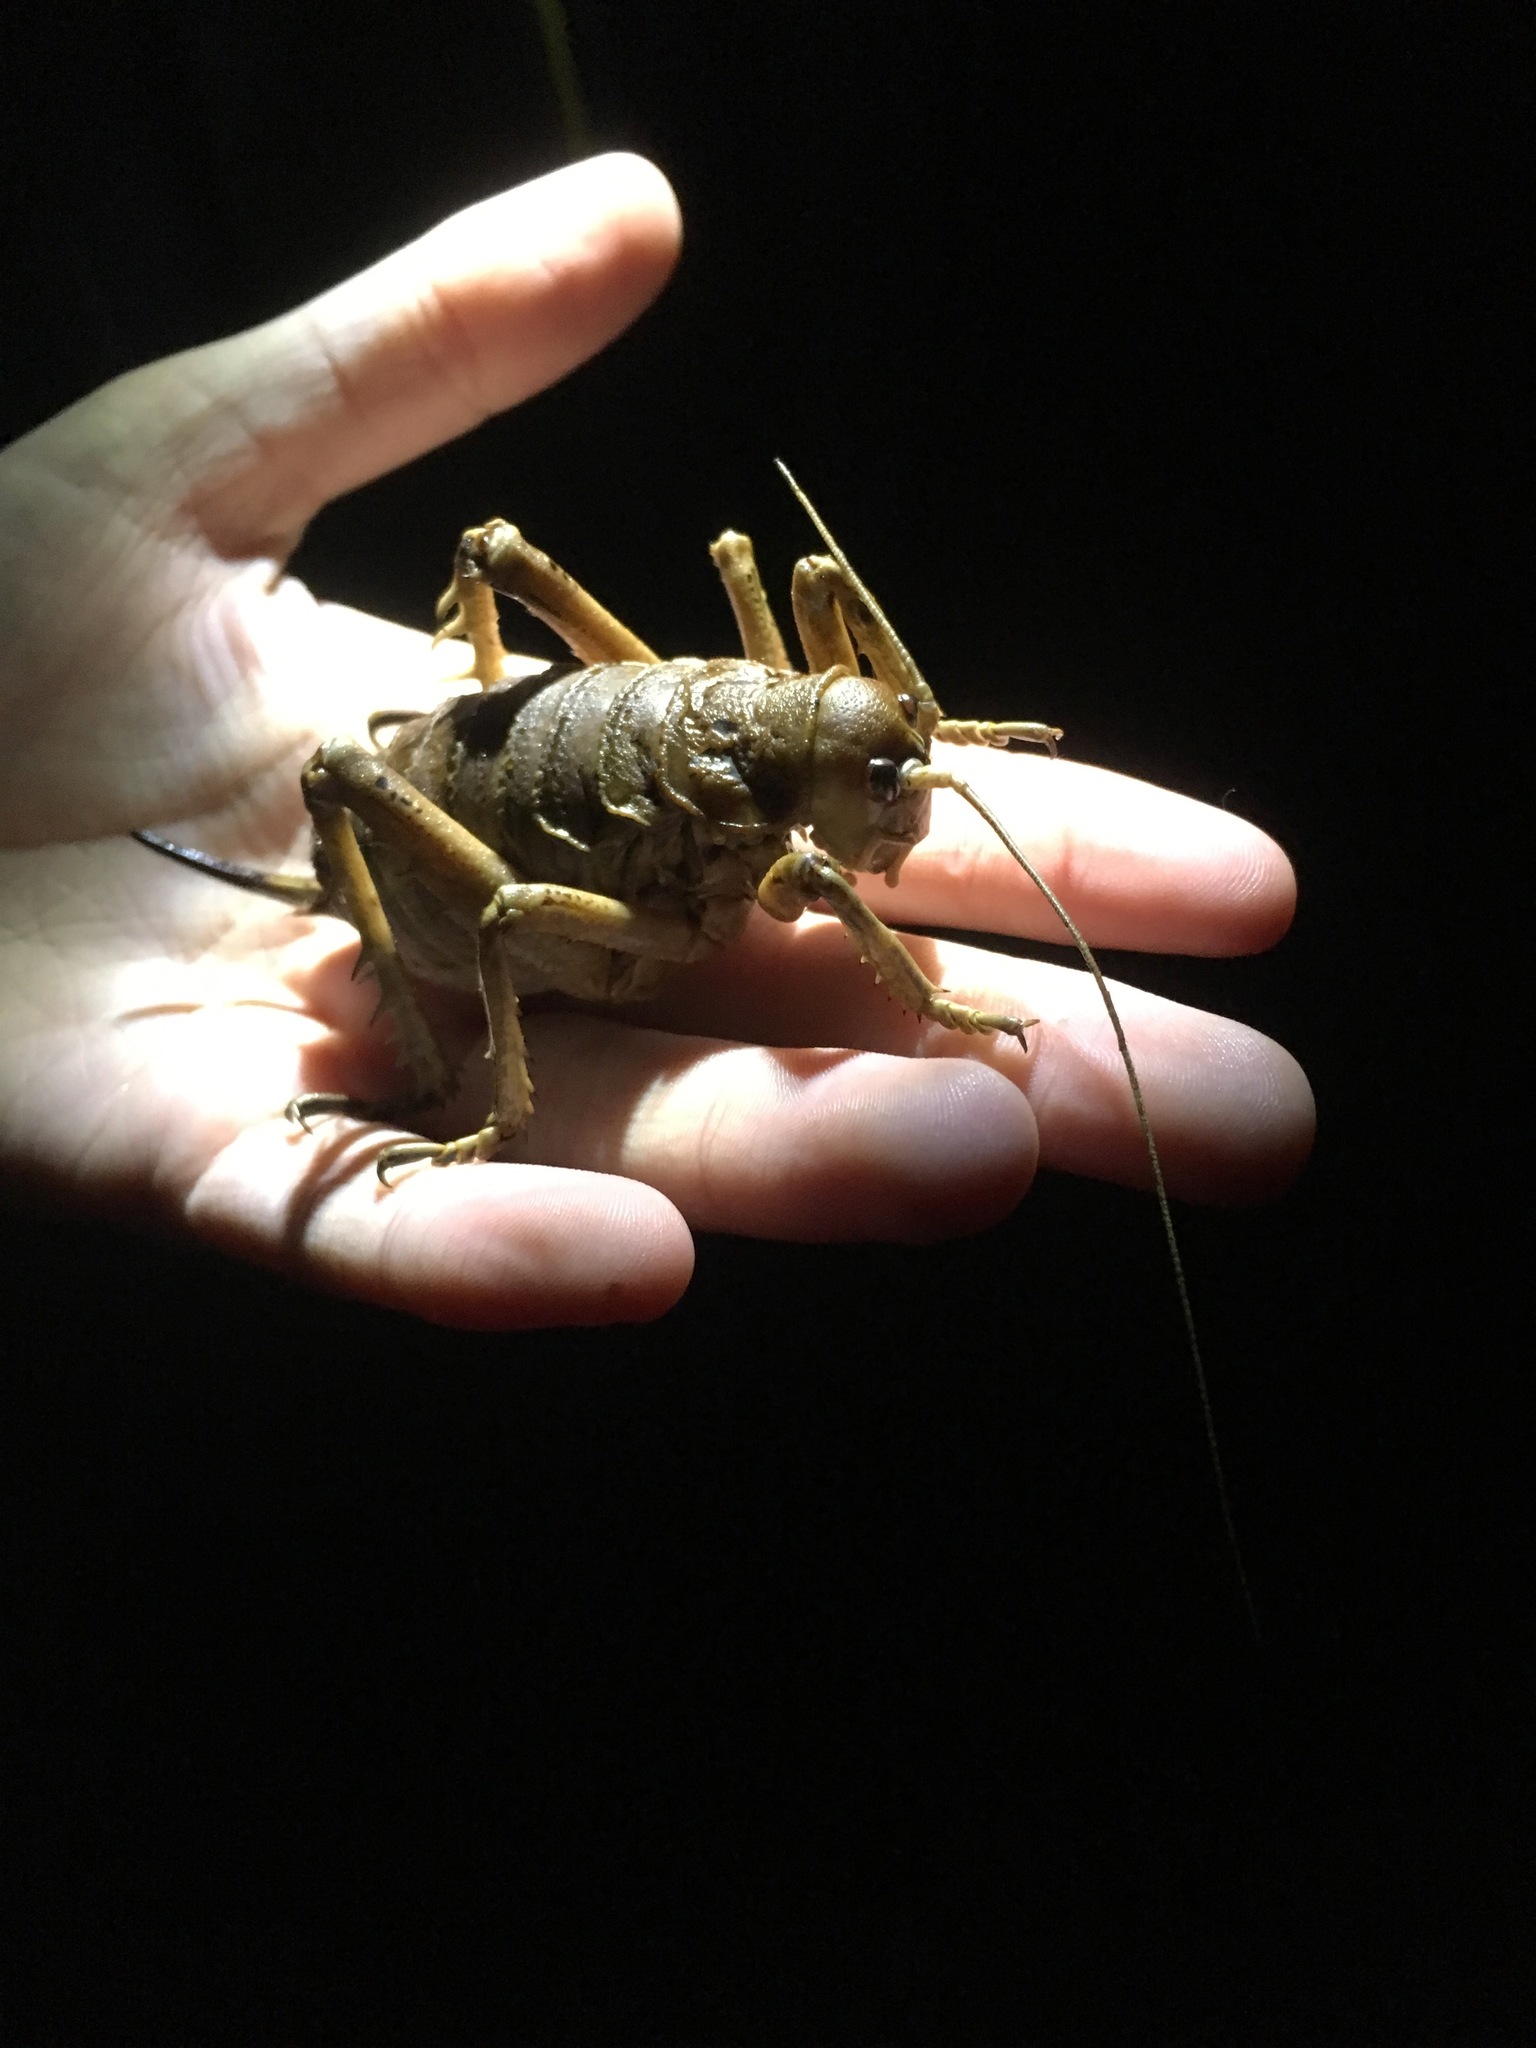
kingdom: Animalia
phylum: Arthropoda
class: Insecta
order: Orthoptera
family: Anostostomatidae
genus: Deinacrida
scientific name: Deinacrida rugosa
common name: Stephens island weta
